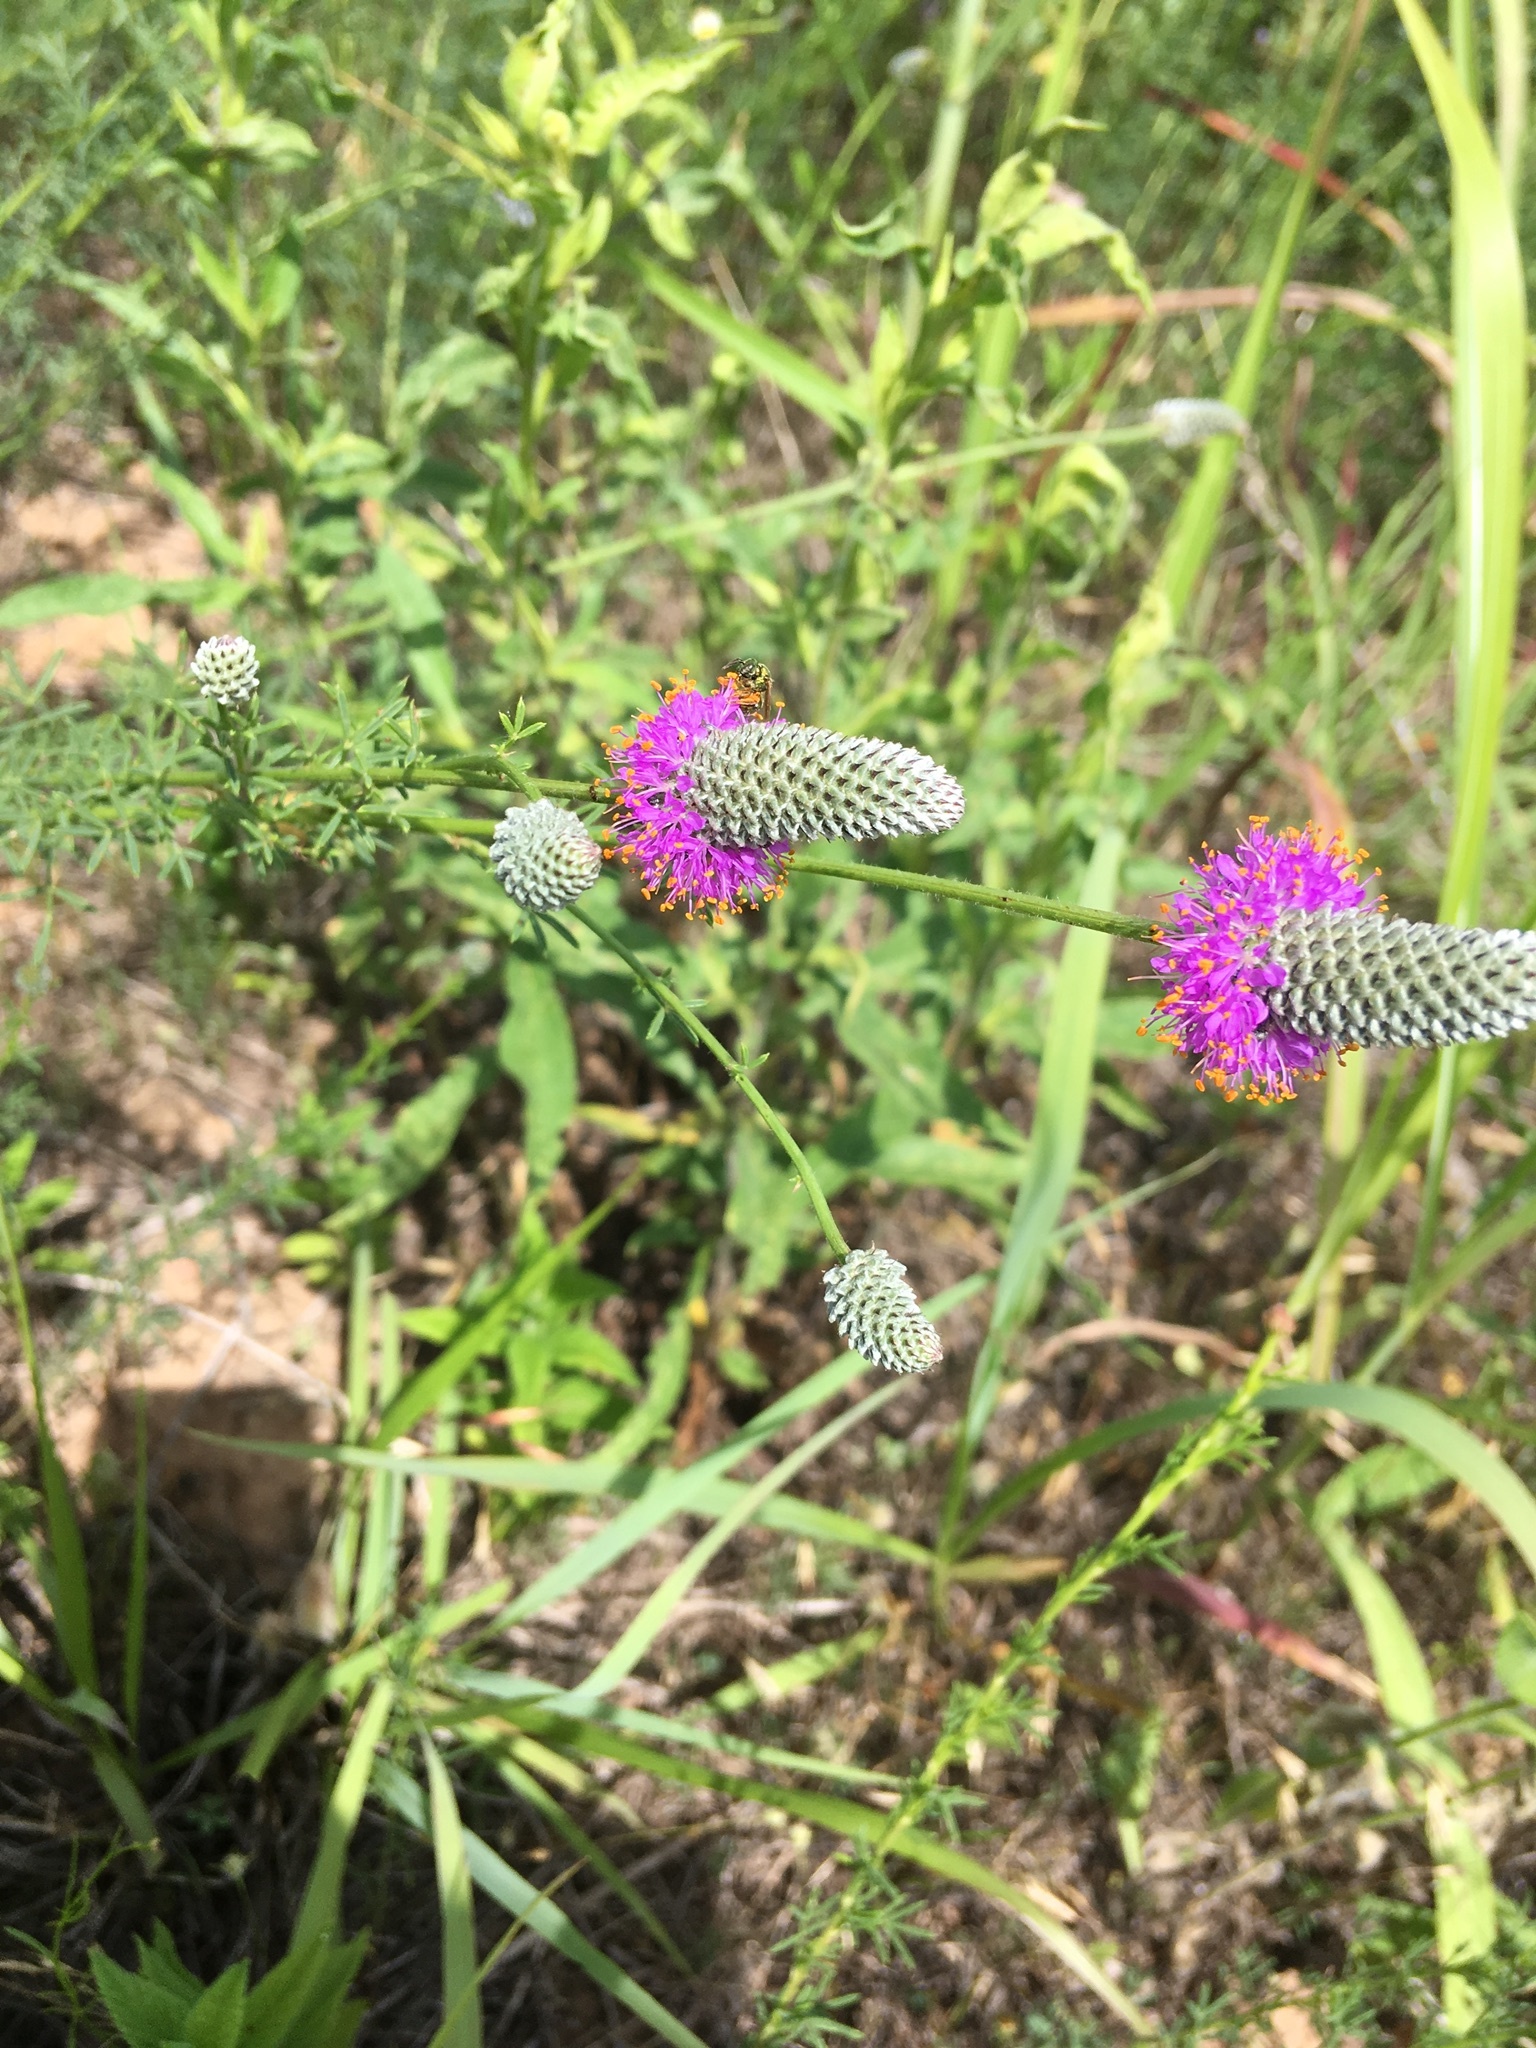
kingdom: Plantae
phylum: Tracheophyta
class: Magnoliopsida
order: Fabales
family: Fabaceae
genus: Dalea
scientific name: Dalea purpurea
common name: Purple prairie-clover
